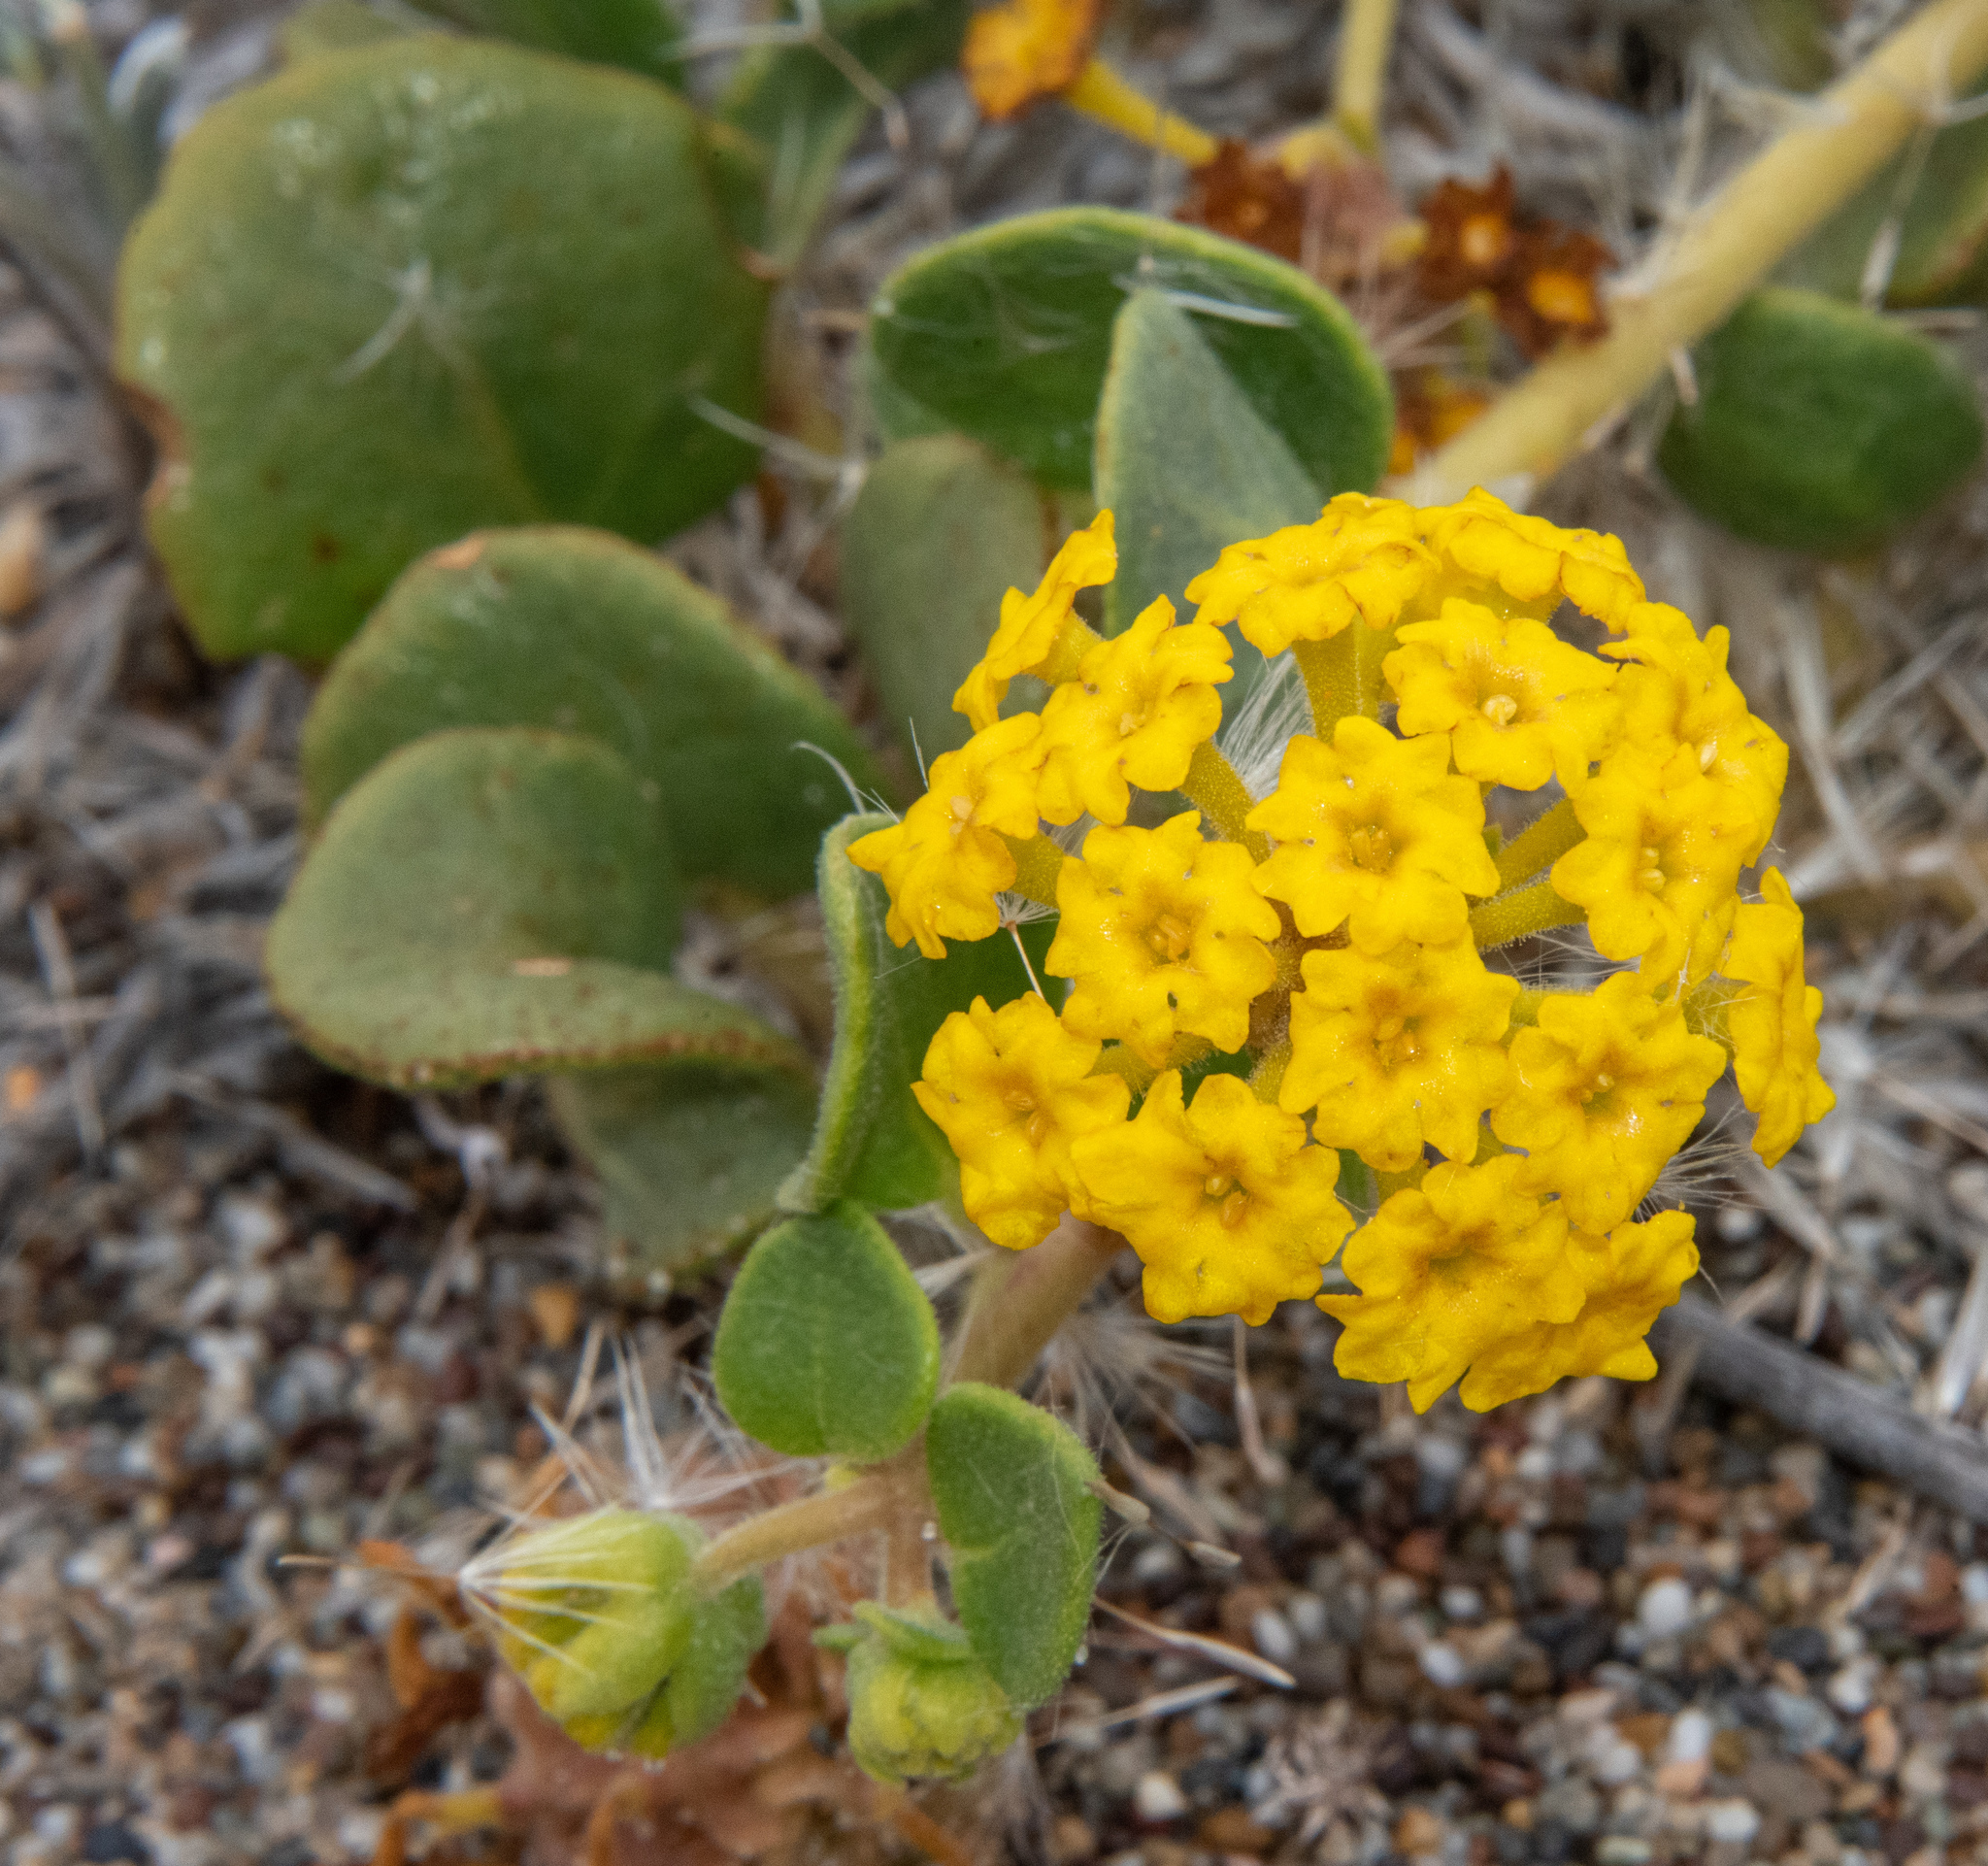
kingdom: Plantae
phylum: Tracheophyta
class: Magnoliopsida
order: Caryophyllales
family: Nyctaginaceae
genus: Abronia
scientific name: Abronia latifolia
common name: Yellow sand-verbena
